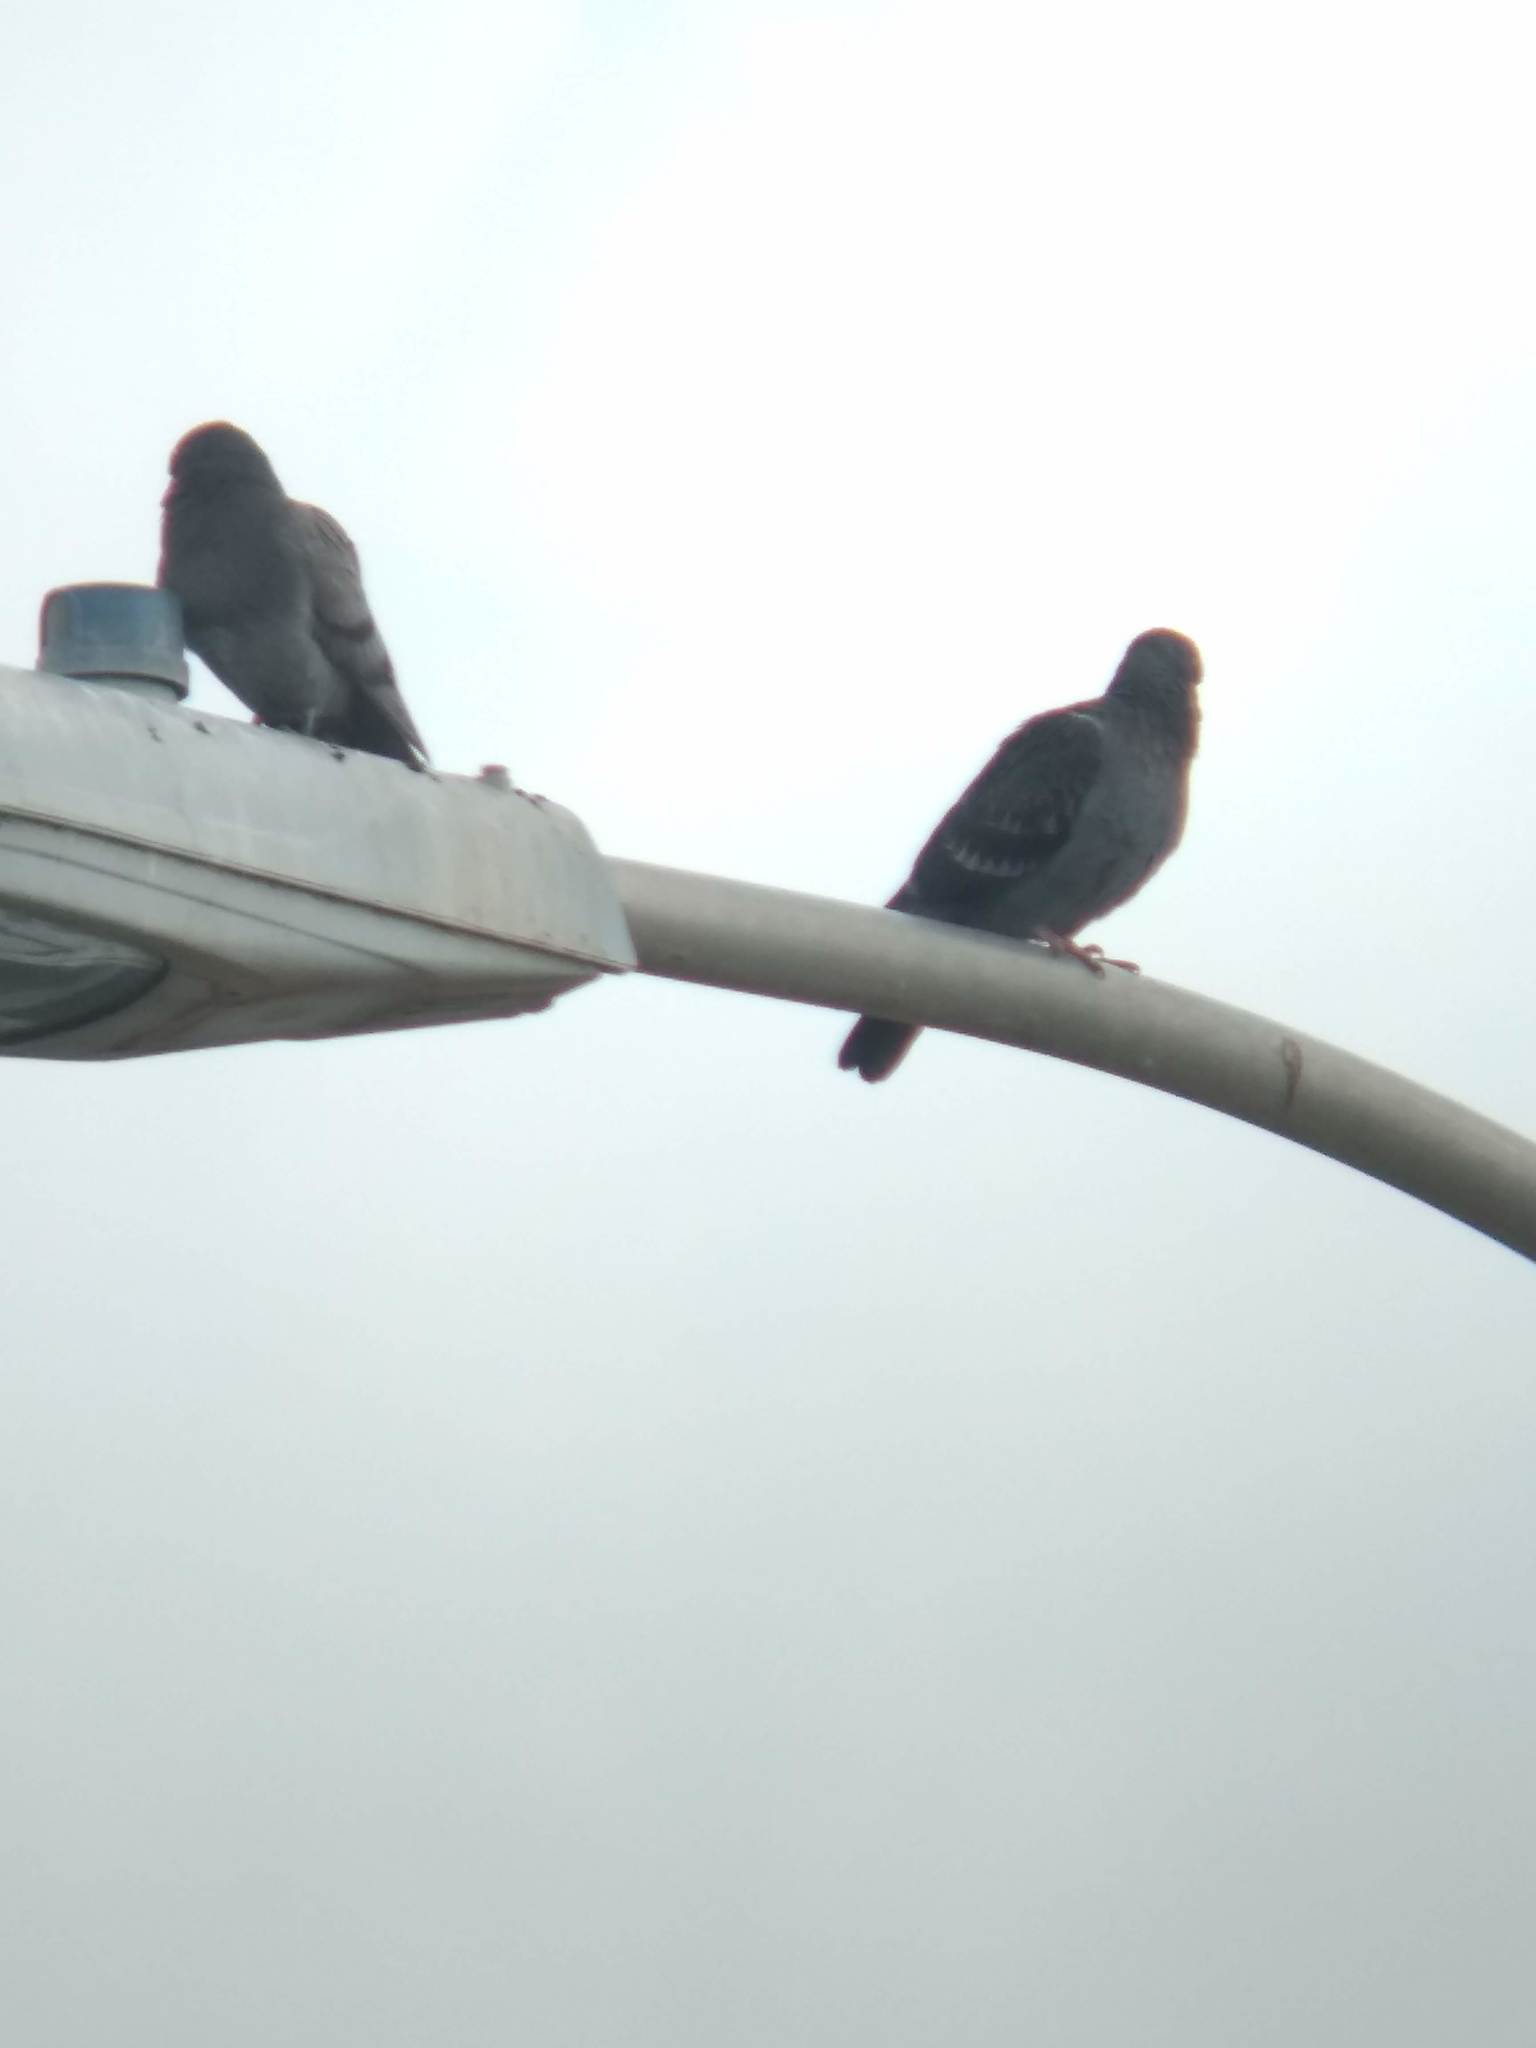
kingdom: Animalia
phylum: Chordata
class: Aves
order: Columbiformes
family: Columbidae
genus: Columba
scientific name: Columba livia
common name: Rock pigeon
